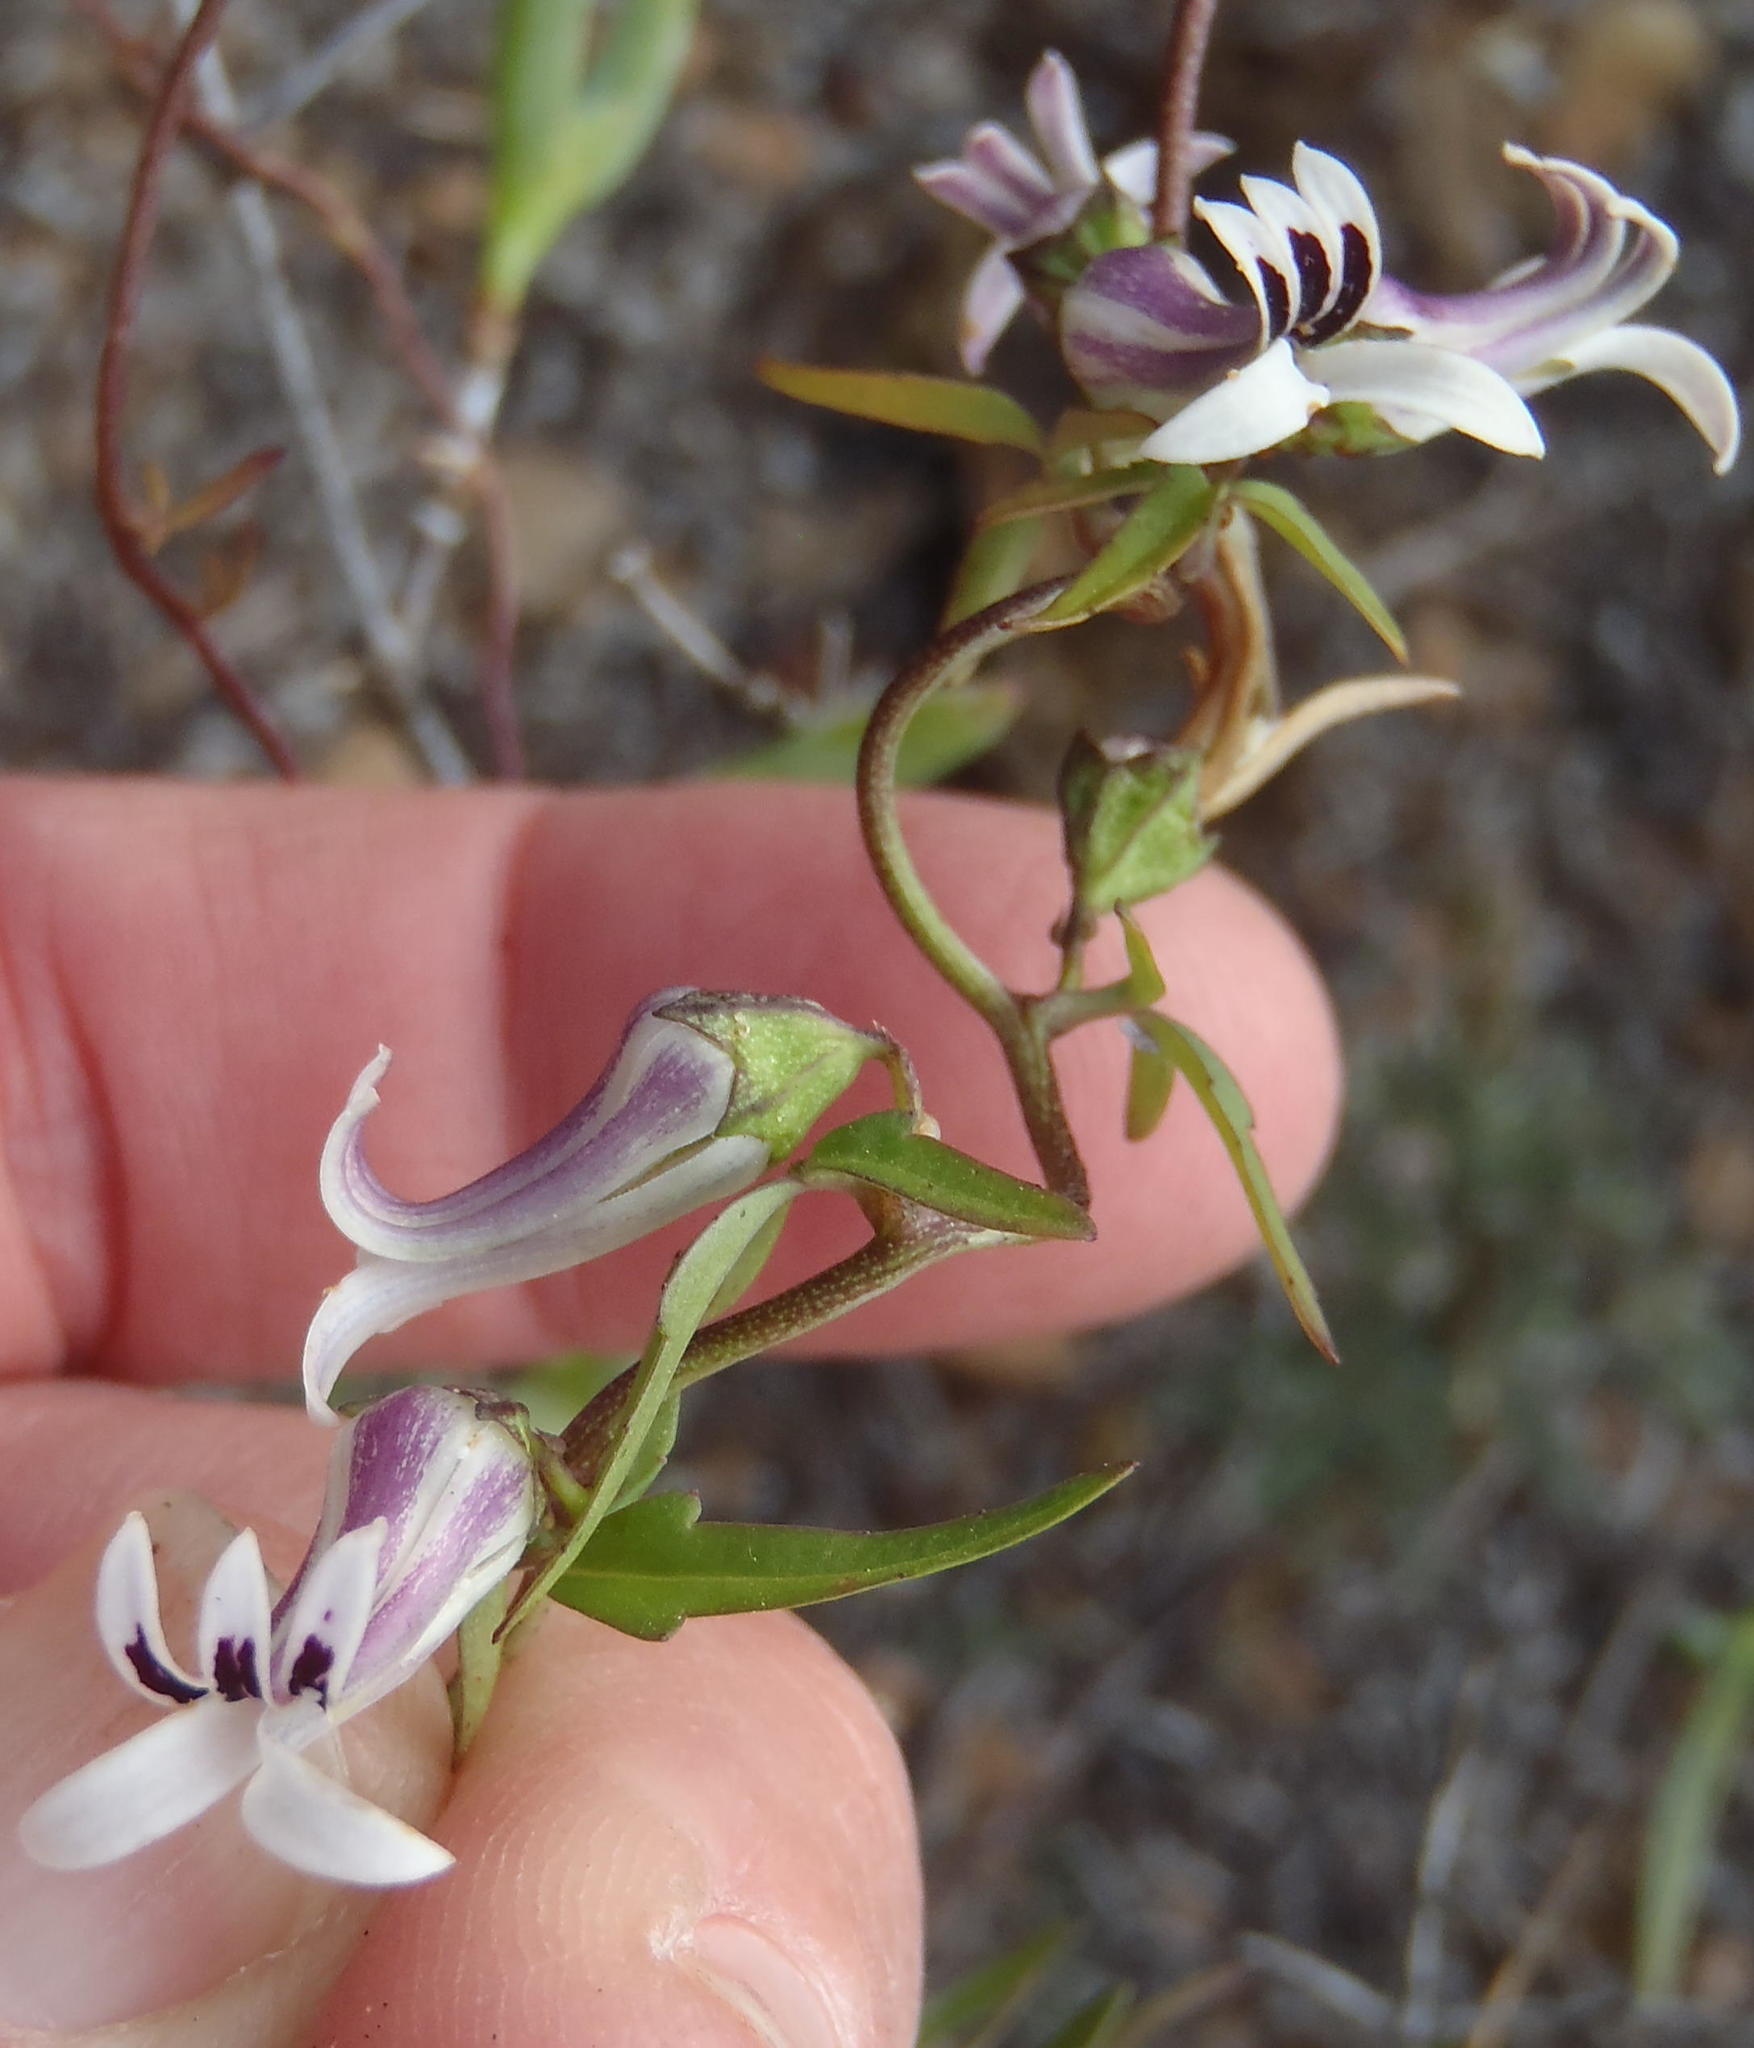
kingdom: Plantae
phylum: Tracheophyta
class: Magnoliopsida
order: Asterales
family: Campanulaceae
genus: Cyphia
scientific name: Cyphia digitata
